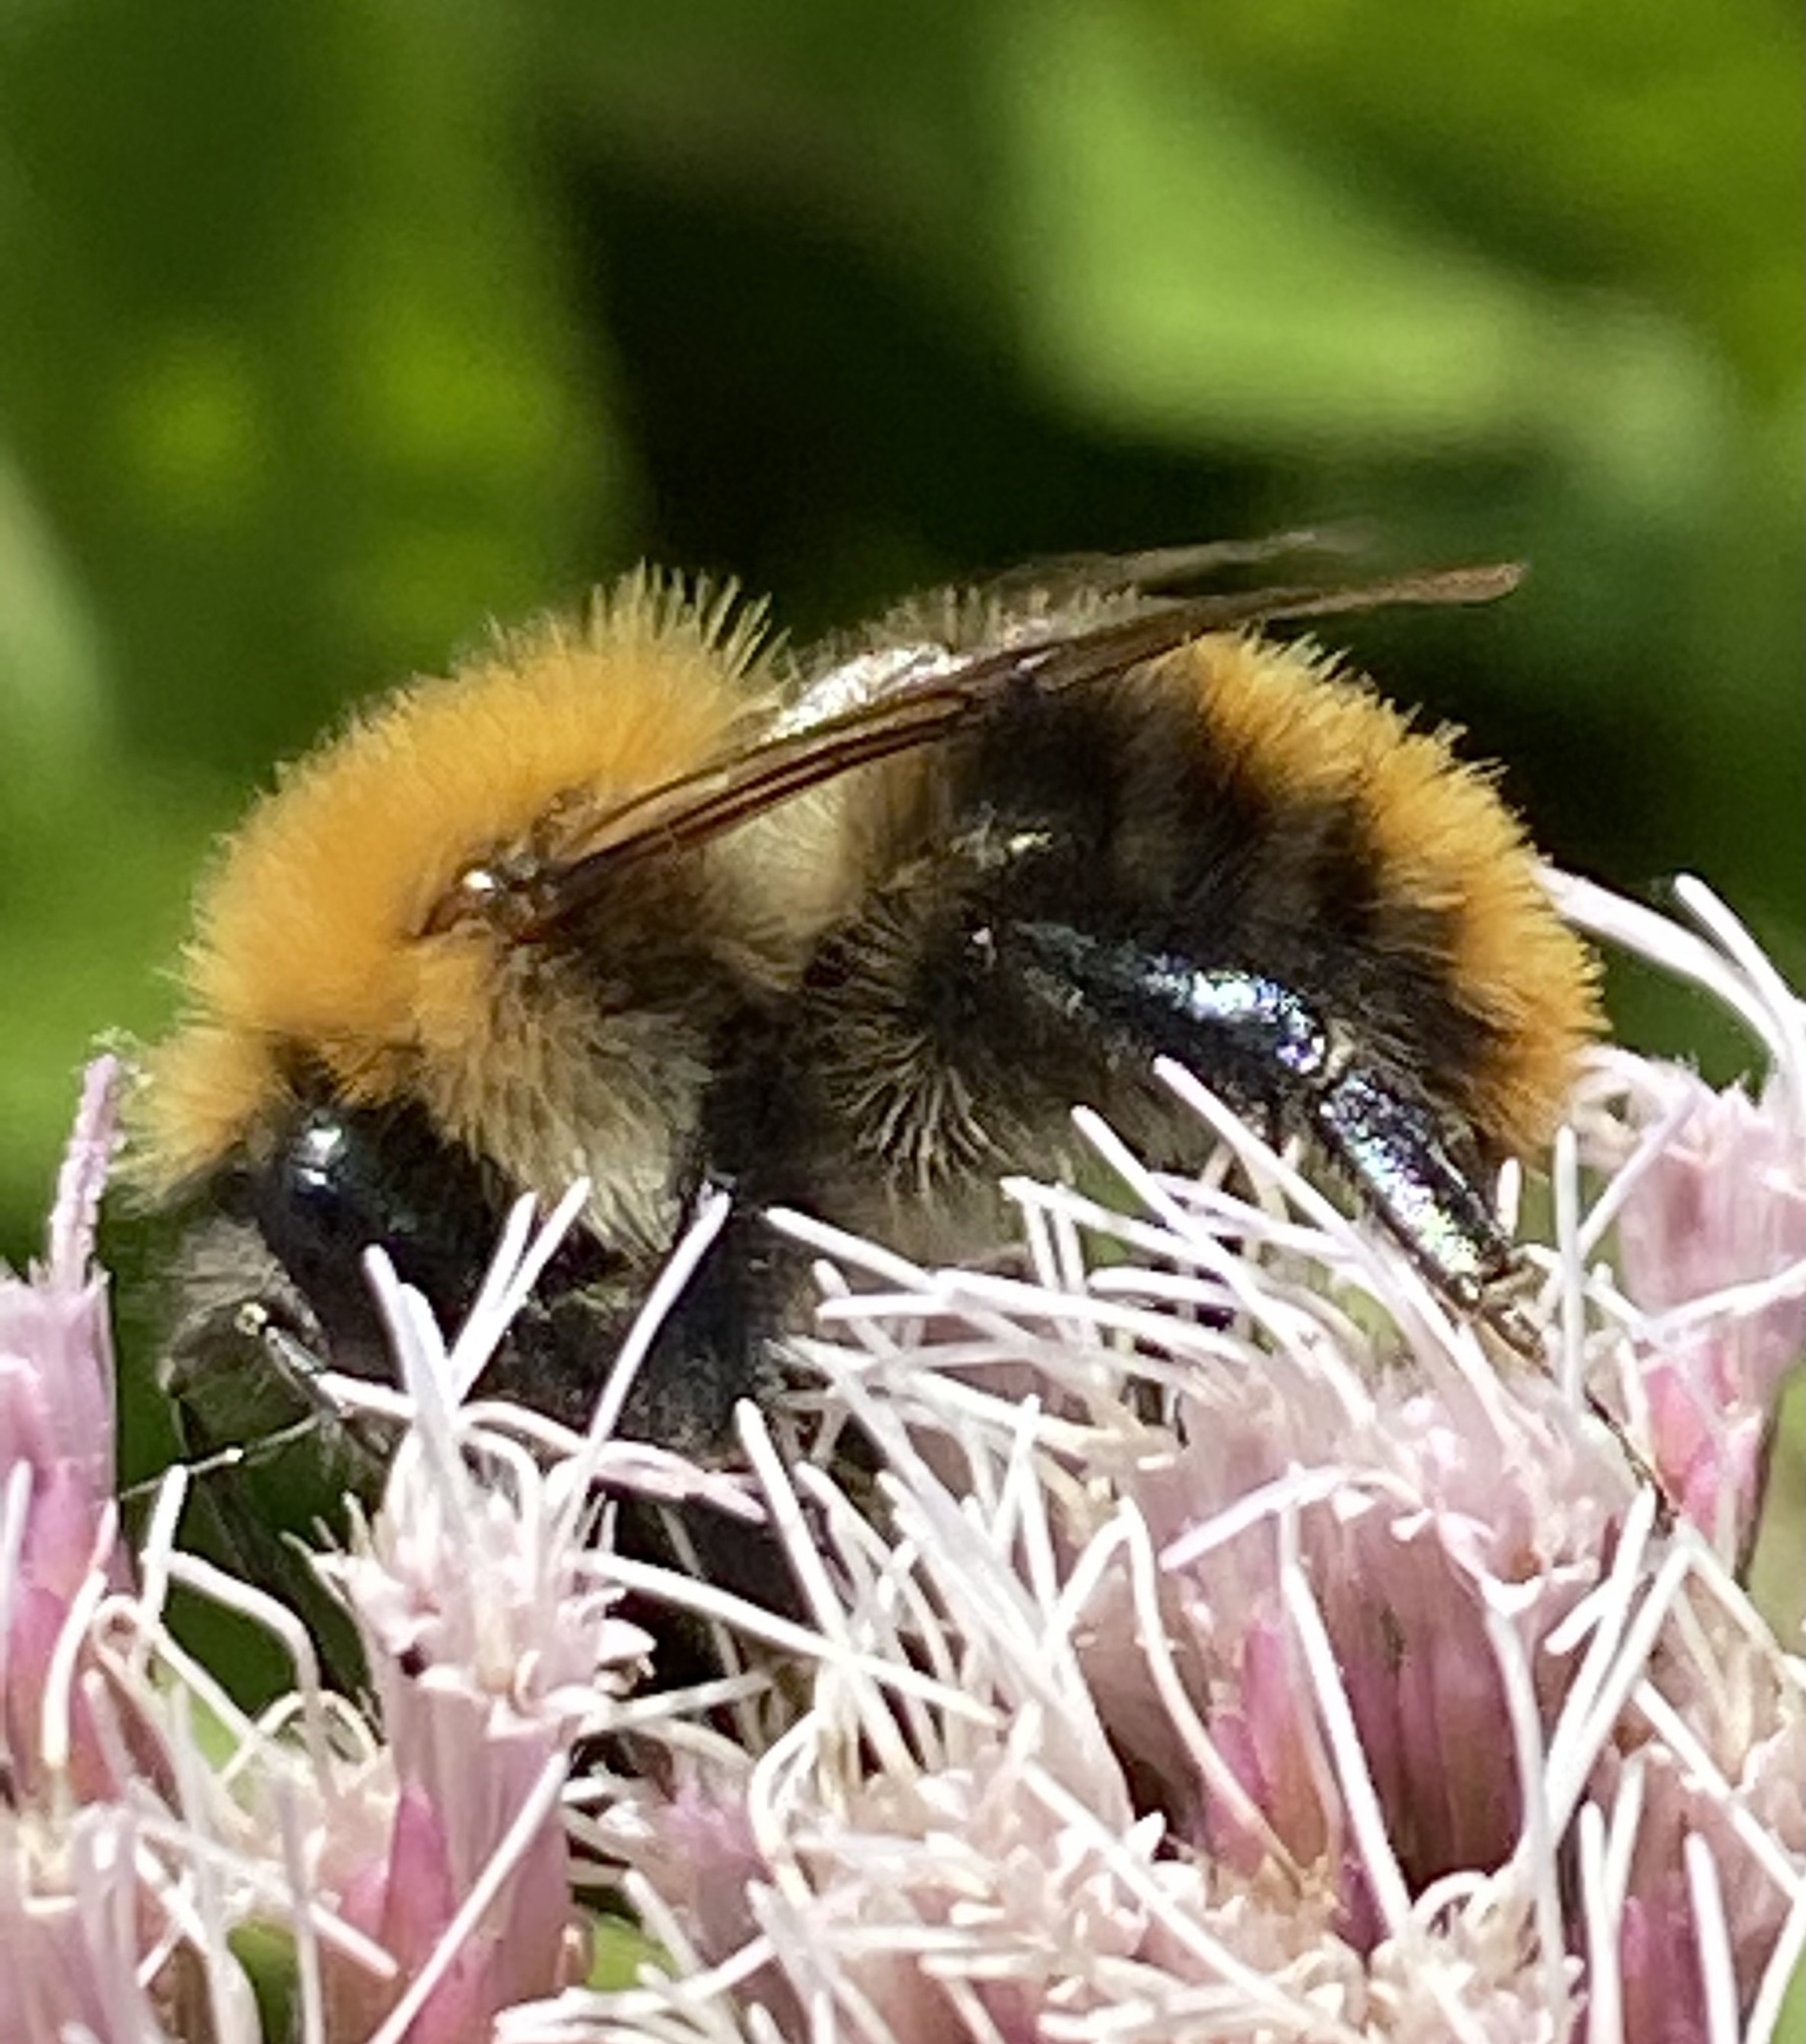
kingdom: Animalia
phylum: Arthropoda
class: Insecta
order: Hymenoptera
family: Apidae
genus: Bombus
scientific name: Bombus pascuorum
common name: Common carder bee
